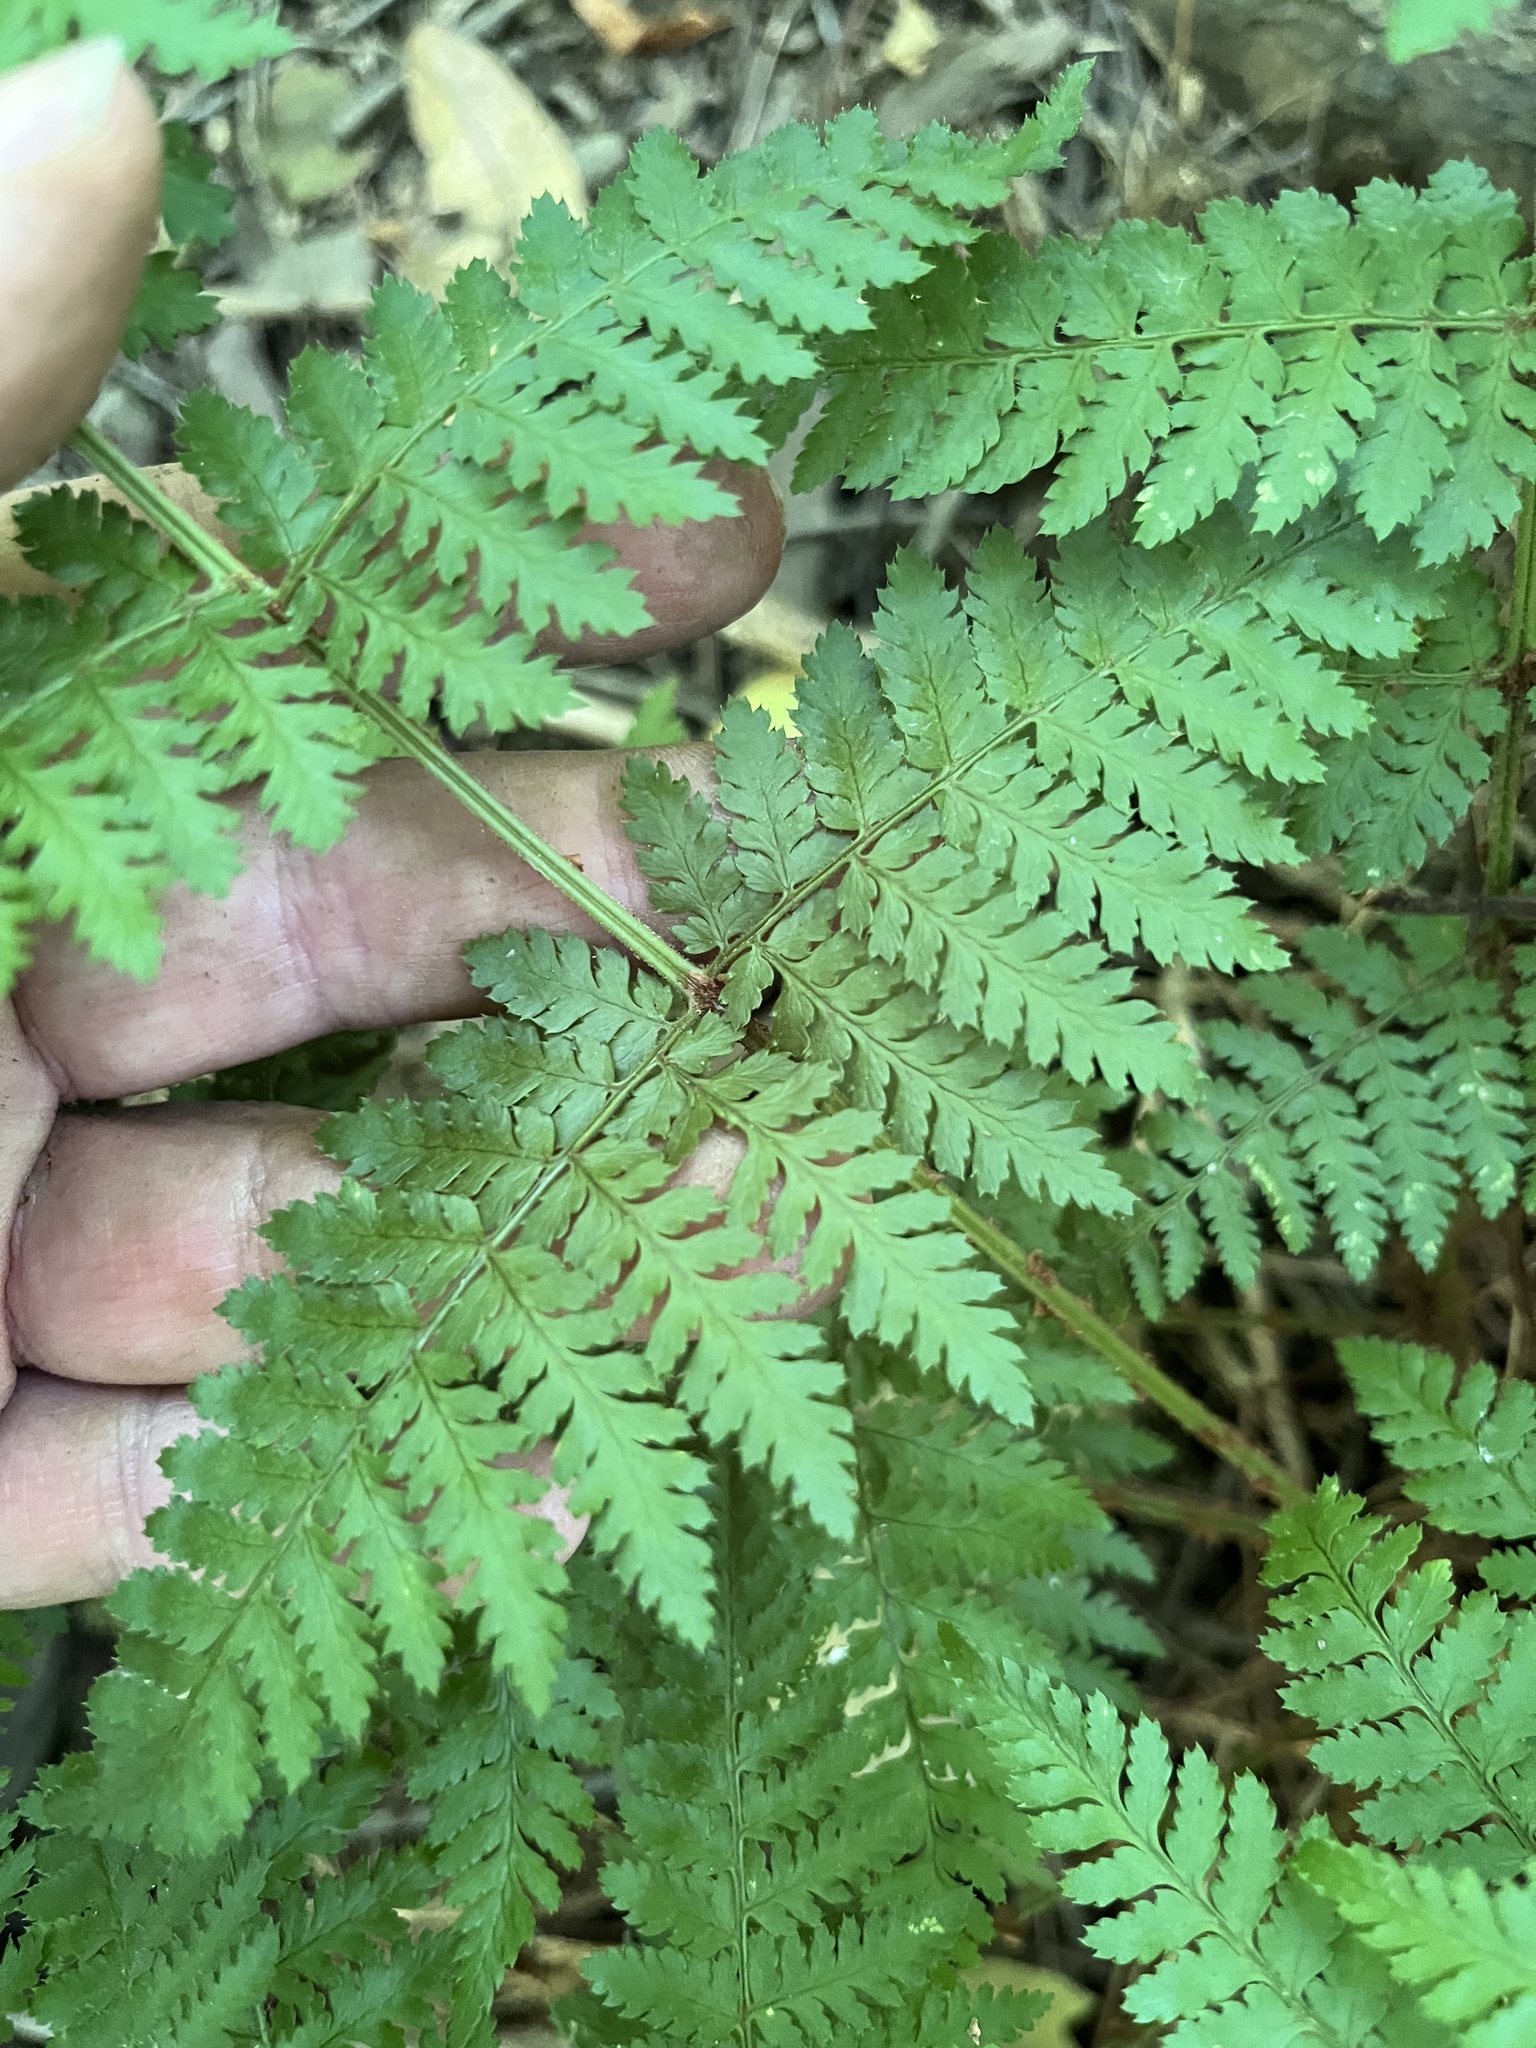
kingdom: Plantae
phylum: Tracheophyta
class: Polypodiopsida
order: Polypodiales
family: Dryopteridaceae
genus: Dryopteris
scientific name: Dryopteris intermedia
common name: Evergreen wood fern
